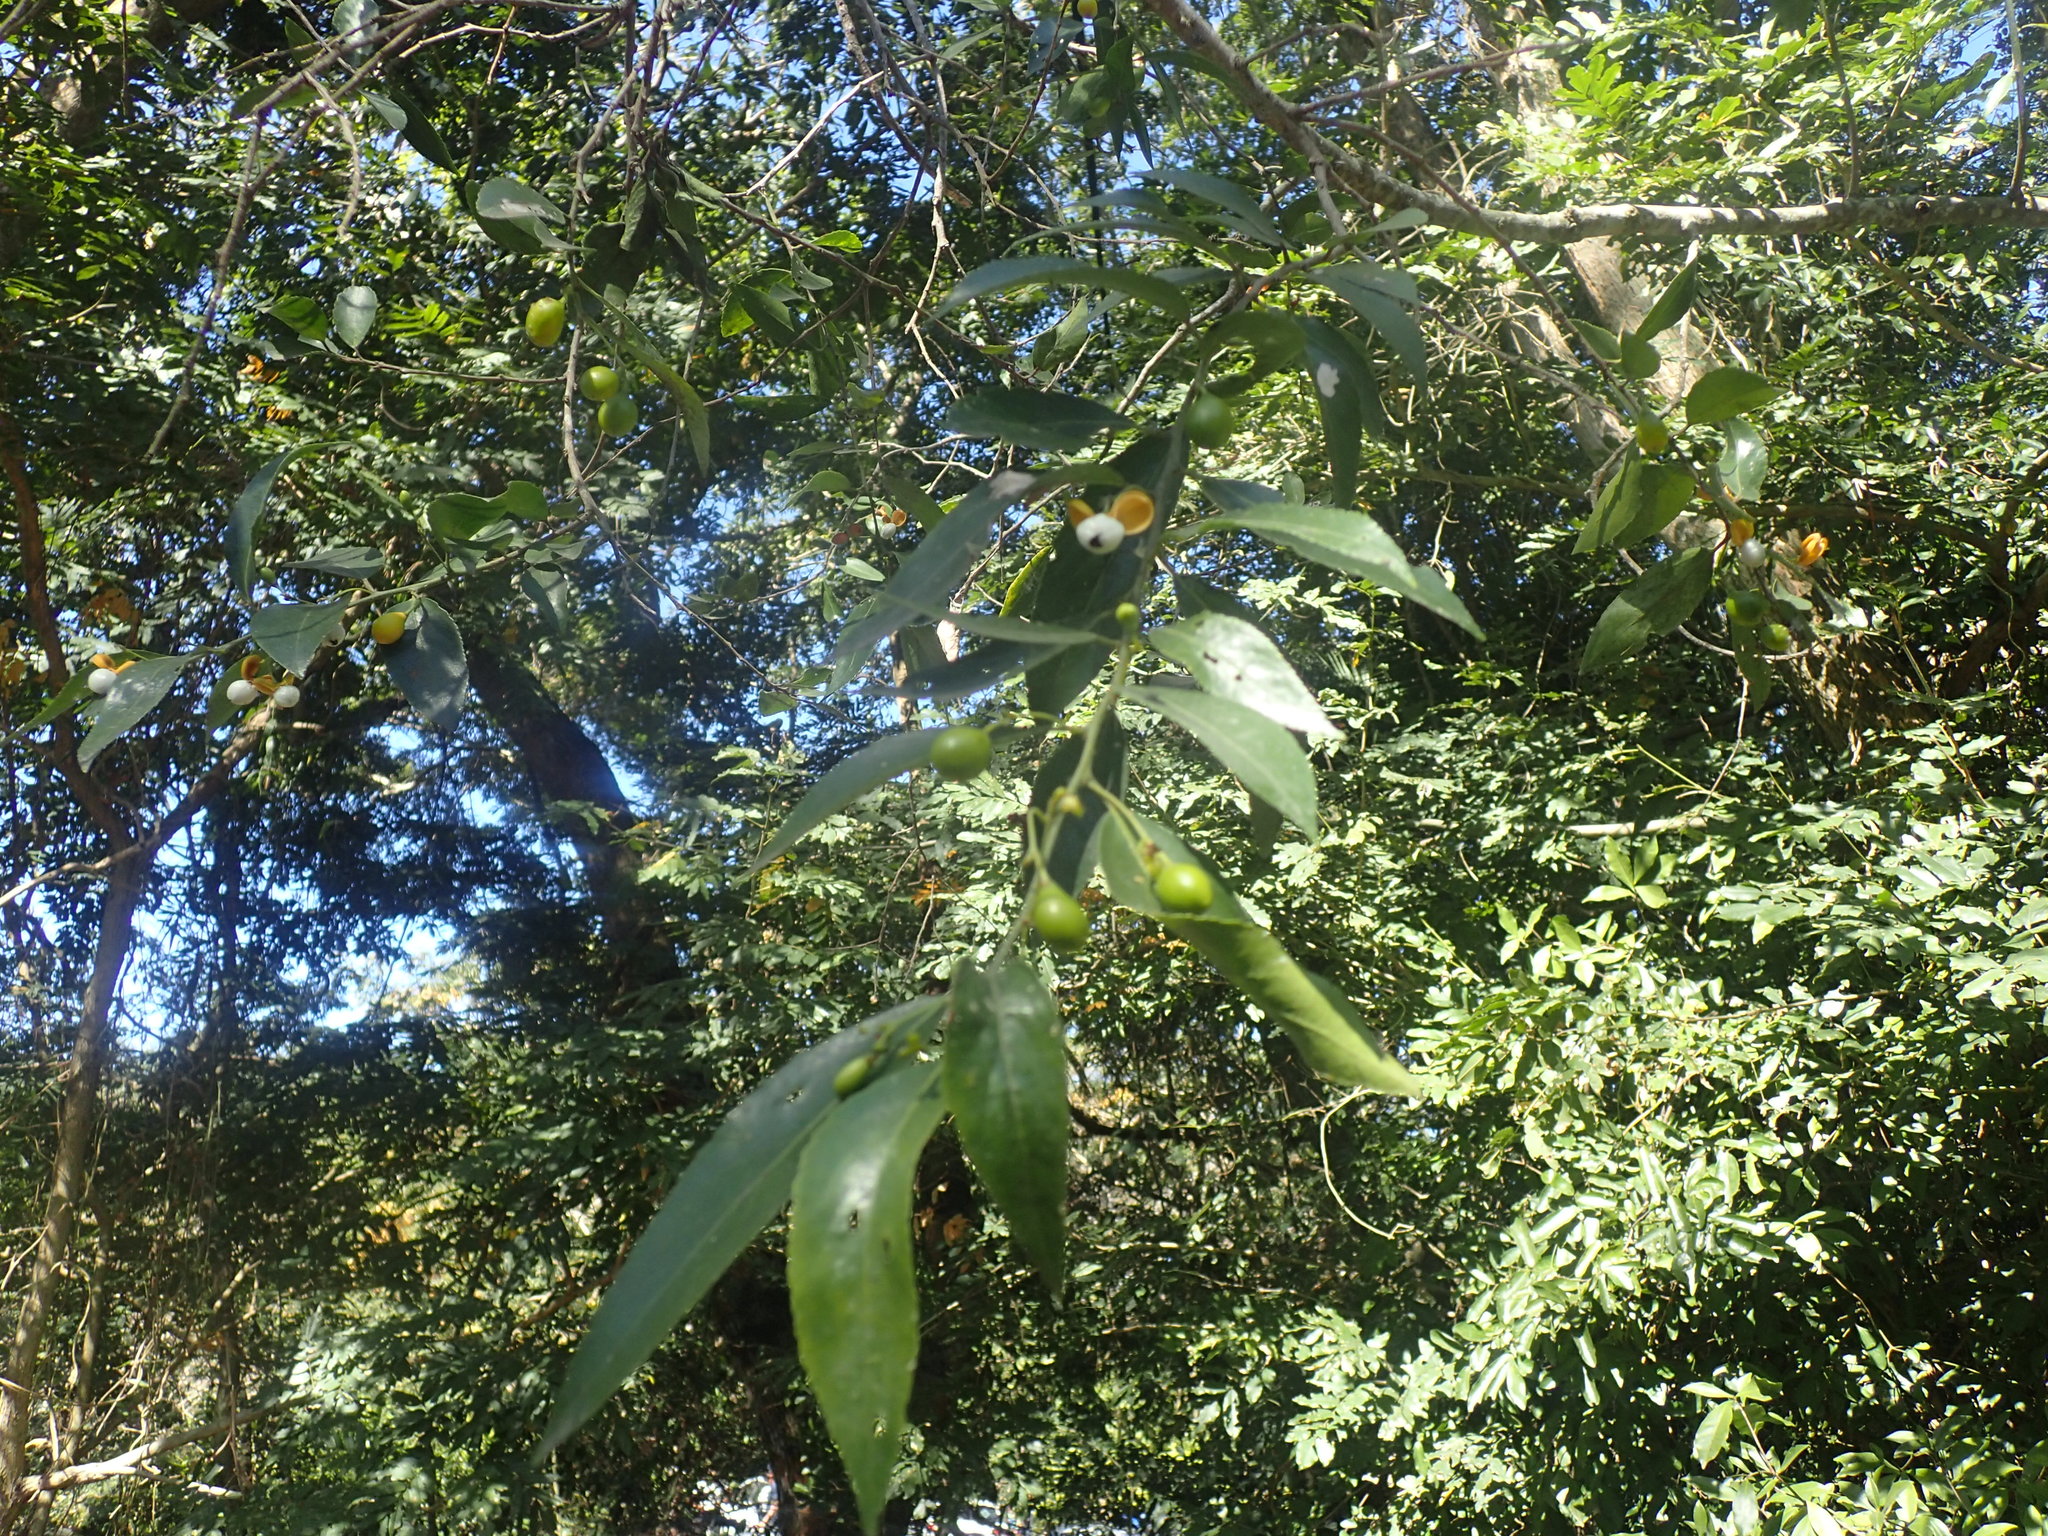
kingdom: Plantae
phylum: Tracheophyta
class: Magnoliopsida
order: Celastrales
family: Celastraceae
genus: Gymnosporia
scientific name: Gymnosporia peduncularis
